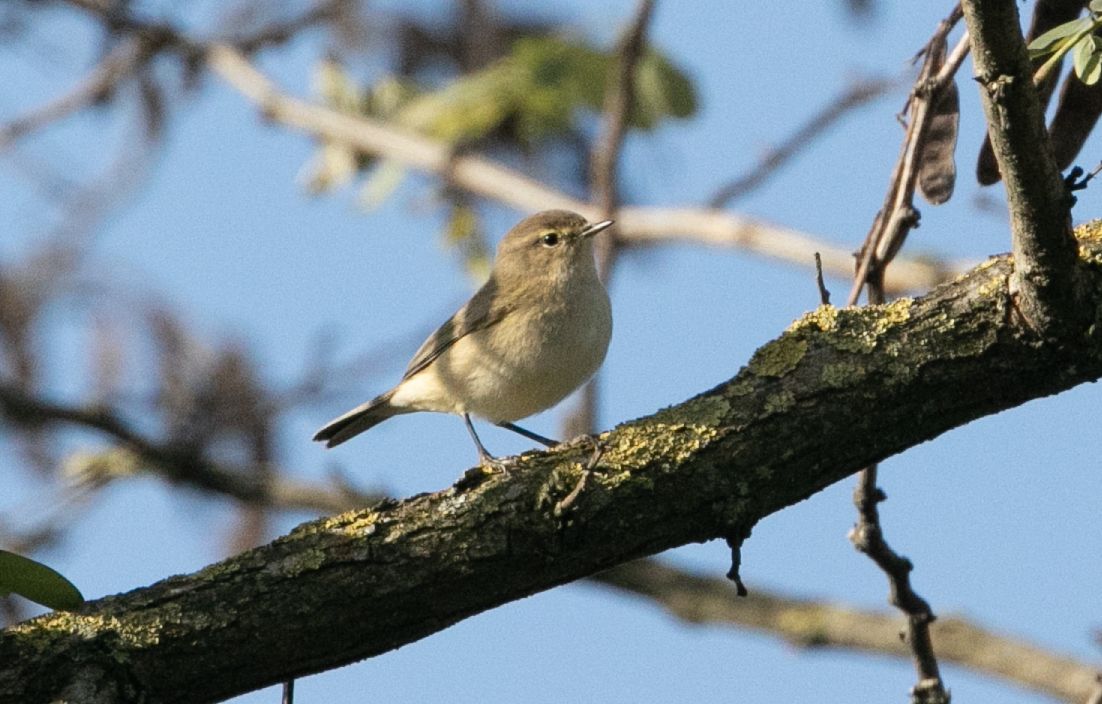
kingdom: Animalia
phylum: Chordata
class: Aves
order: Passeriformes
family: Phylloscopidae
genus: Phylloscopus
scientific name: Phylloscopus collybita
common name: Common chiffchaff
